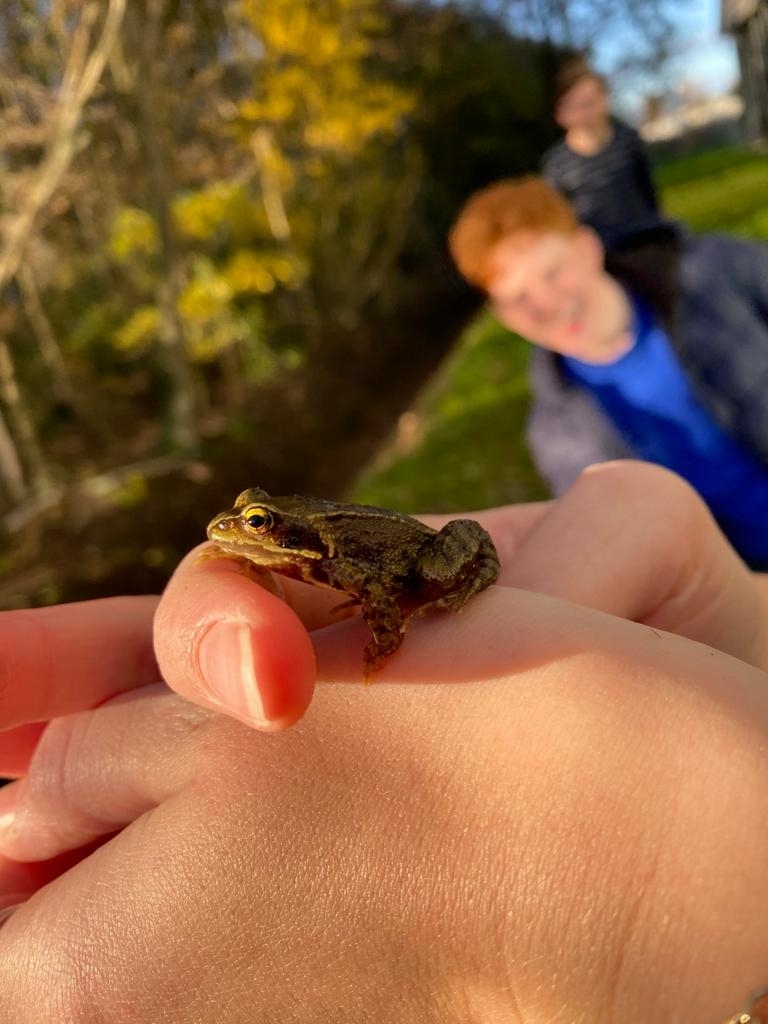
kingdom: Animalia
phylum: Chordata
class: Amphibia
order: Anura
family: Ranidae
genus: Rana
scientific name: Rana temporaria
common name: Common frog
